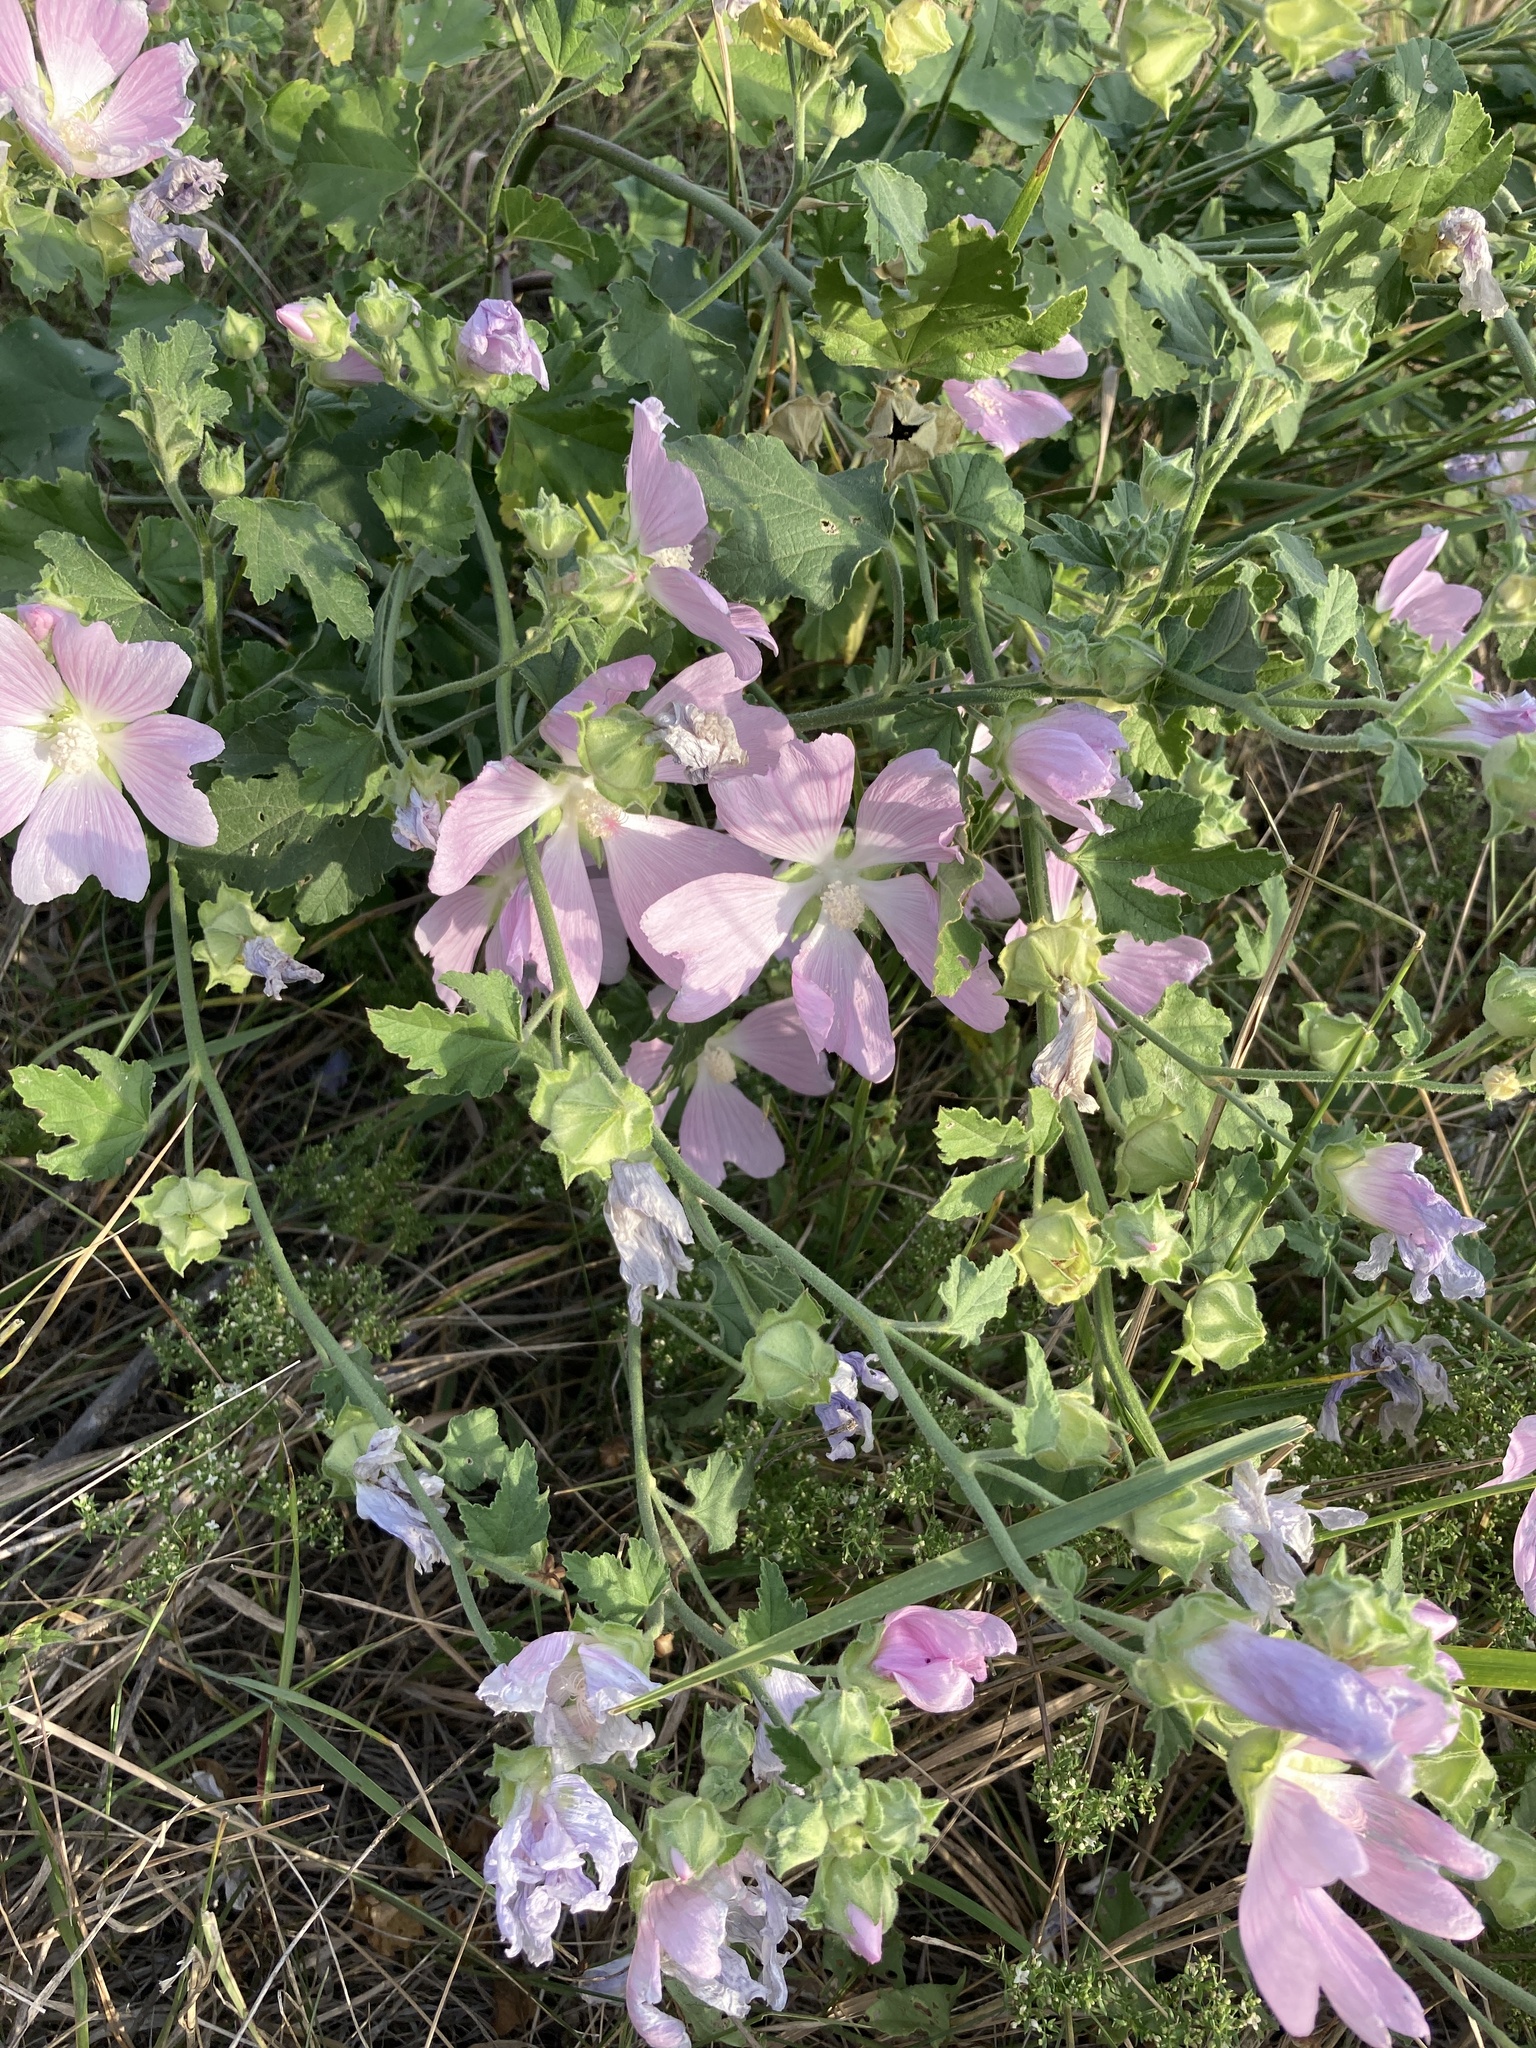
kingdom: Plantae
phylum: Tracheophyta
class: Magnoliopsida
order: Malvales
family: Malvaceae
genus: Malva
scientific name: Malva thuringiaca
